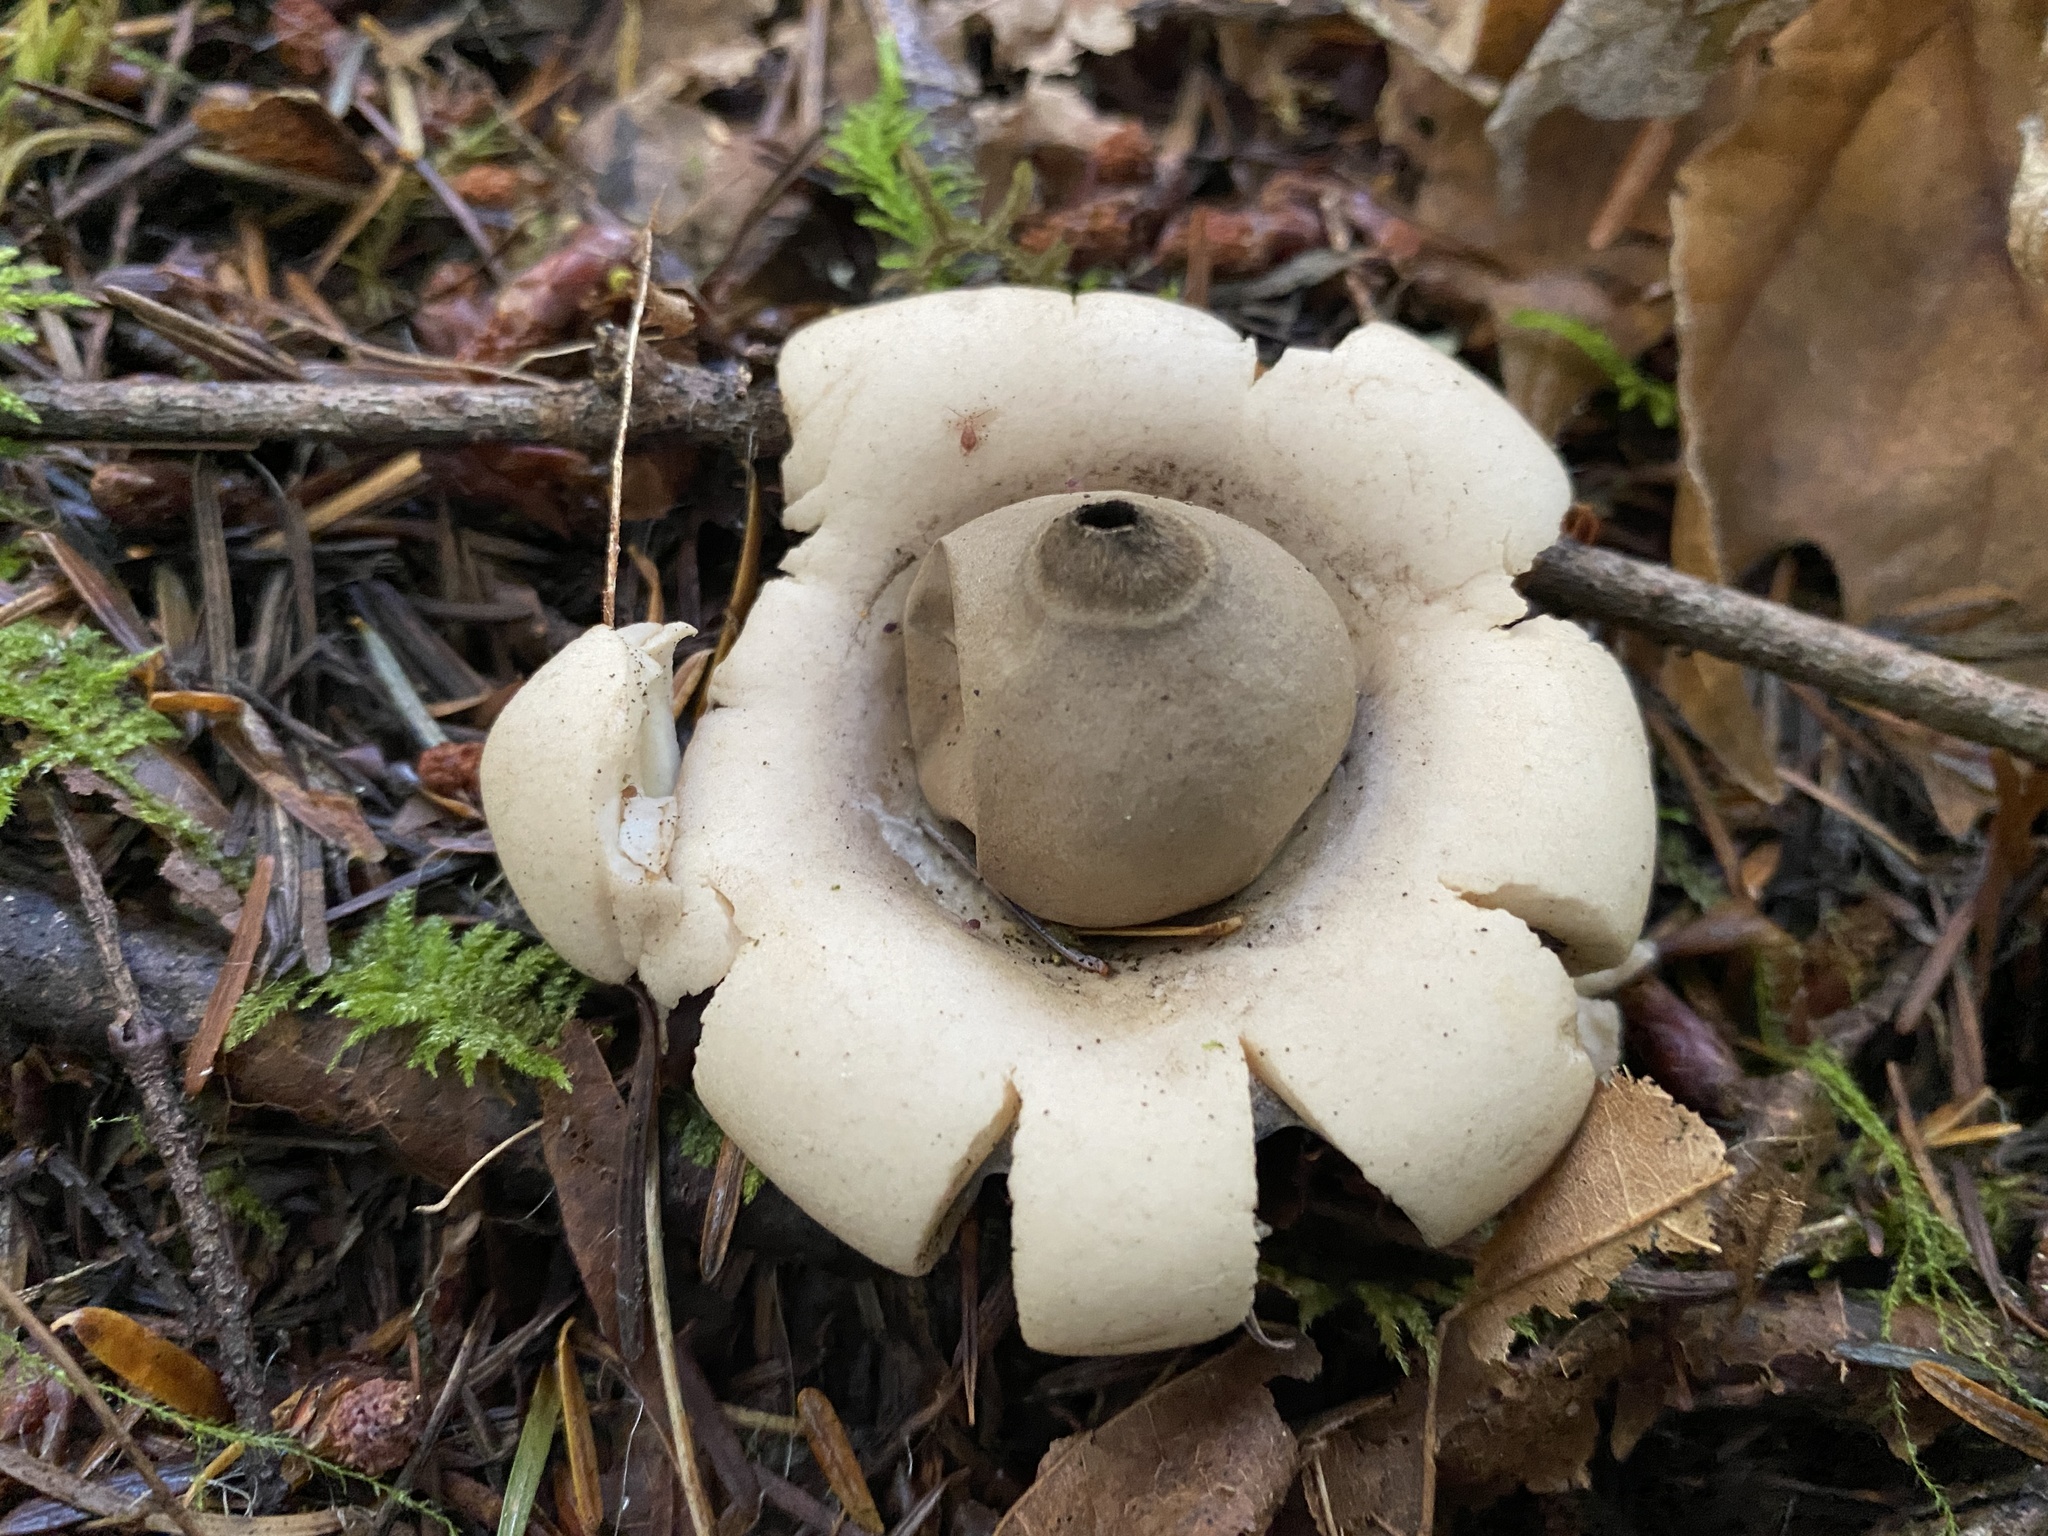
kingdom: Fungi
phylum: Basidiomycota
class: Agaricomycetes
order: Geastrales
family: Geastraceae
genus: Geastrum
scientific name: Geastrum saccatum
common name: Rounded earthstar
